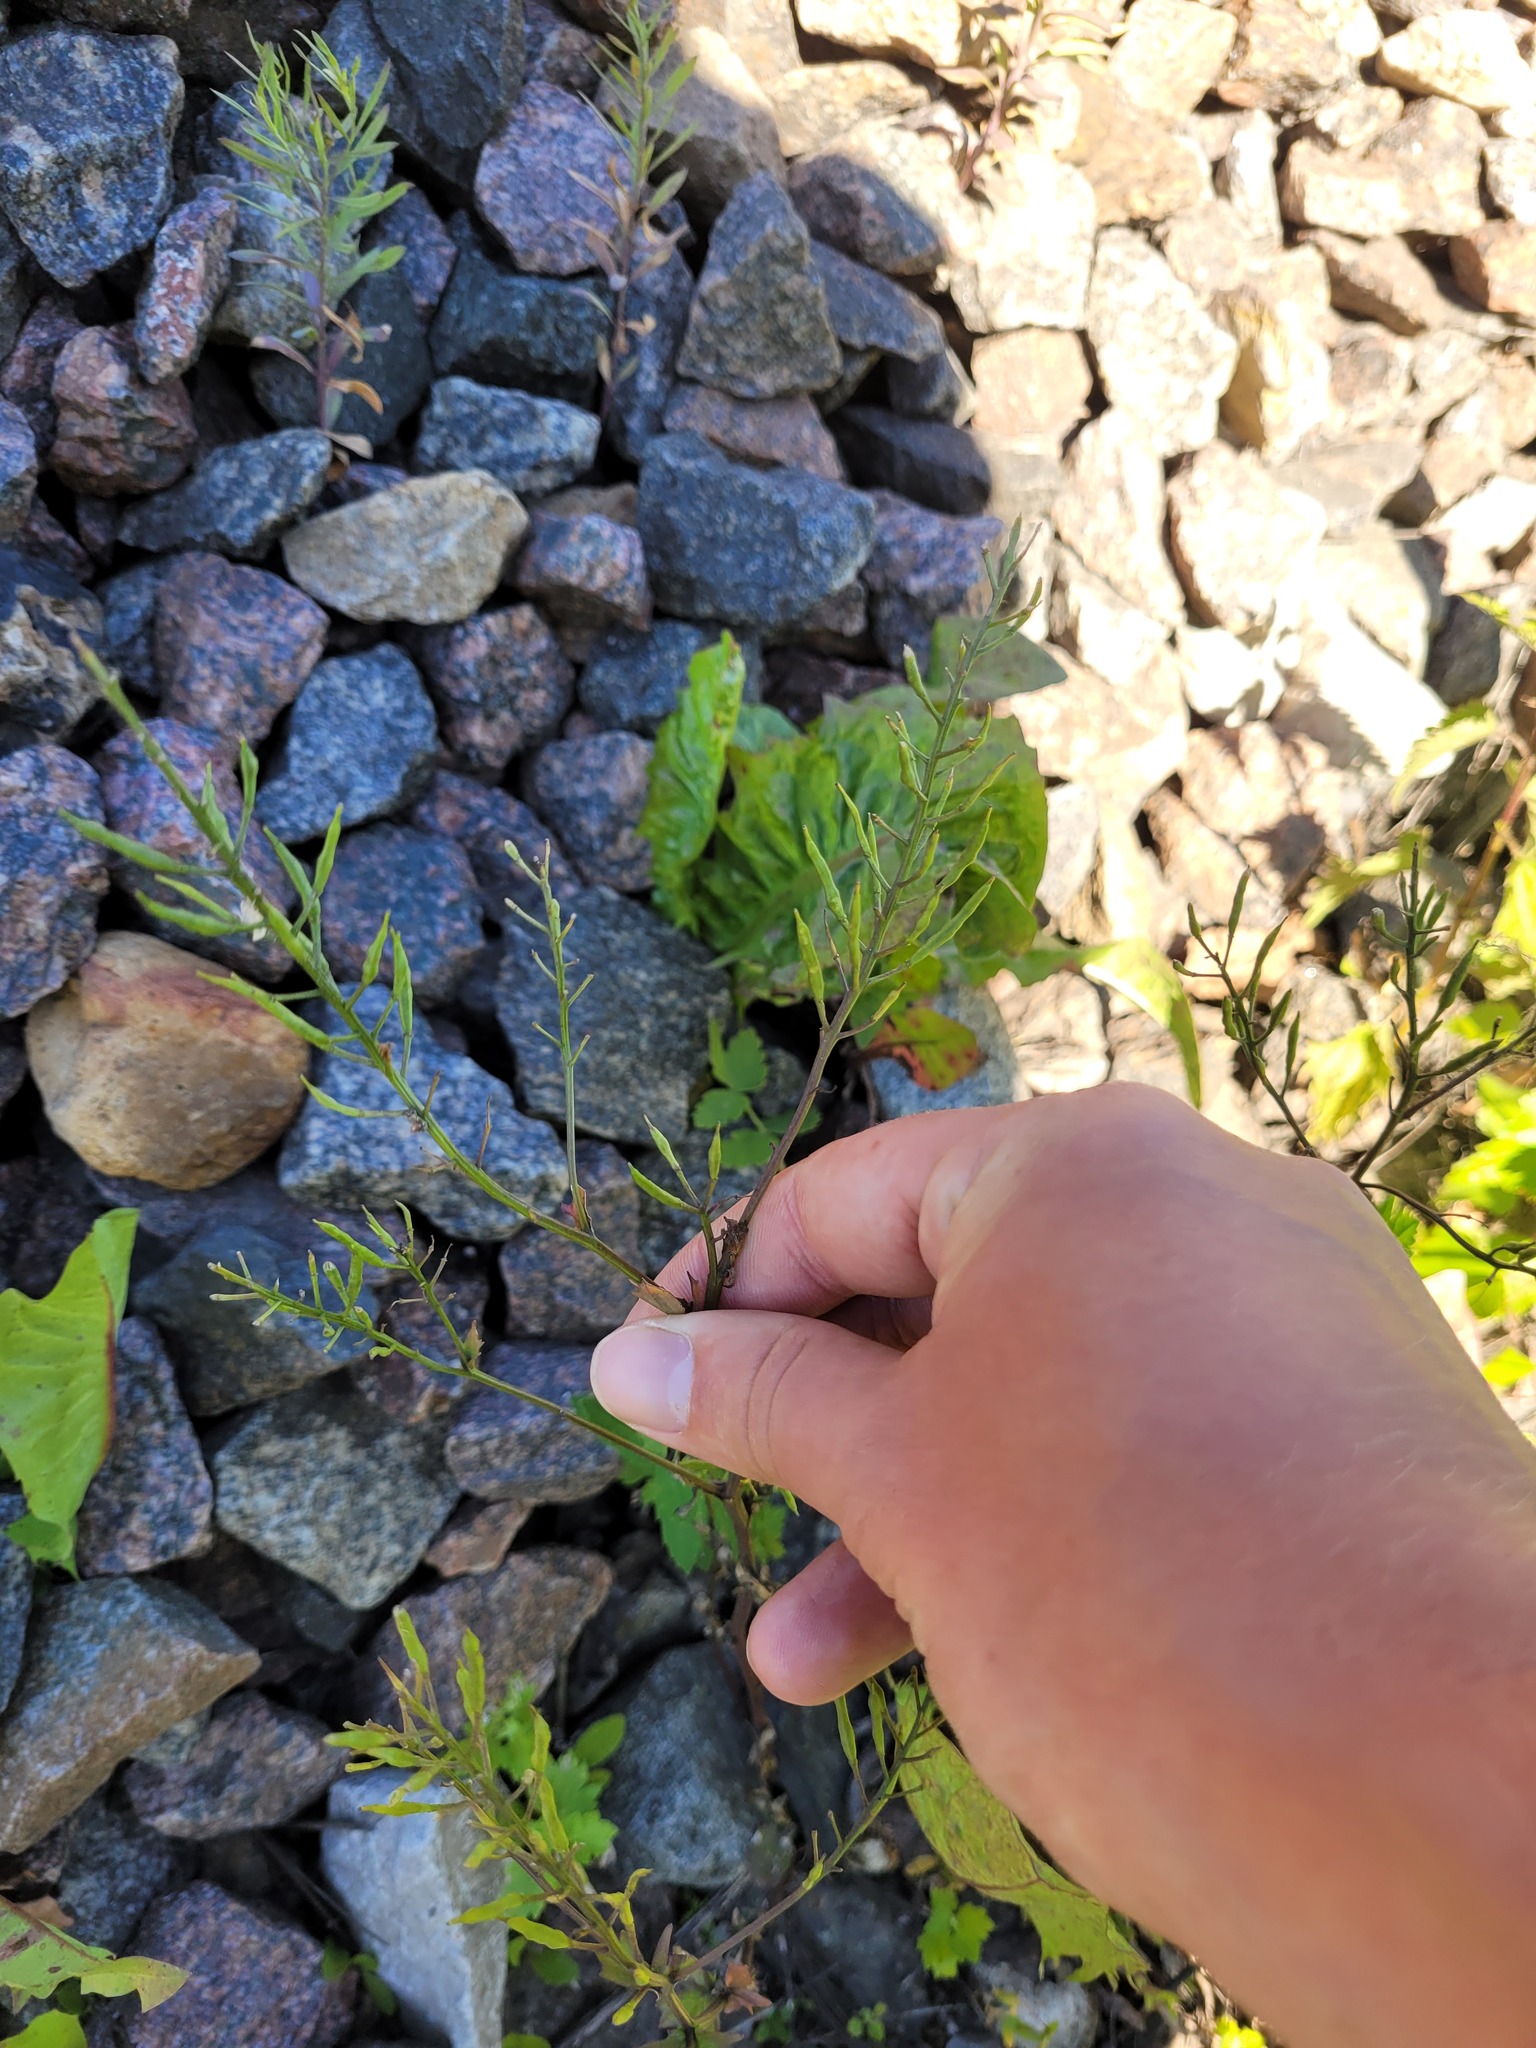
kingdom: Plantae
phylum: Tracheophyta
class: Magnoliopsida
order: Brassicales
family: Brassicaceae
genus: Barbarea
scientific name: Barbarea vulgaris
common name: Cressy-greens
